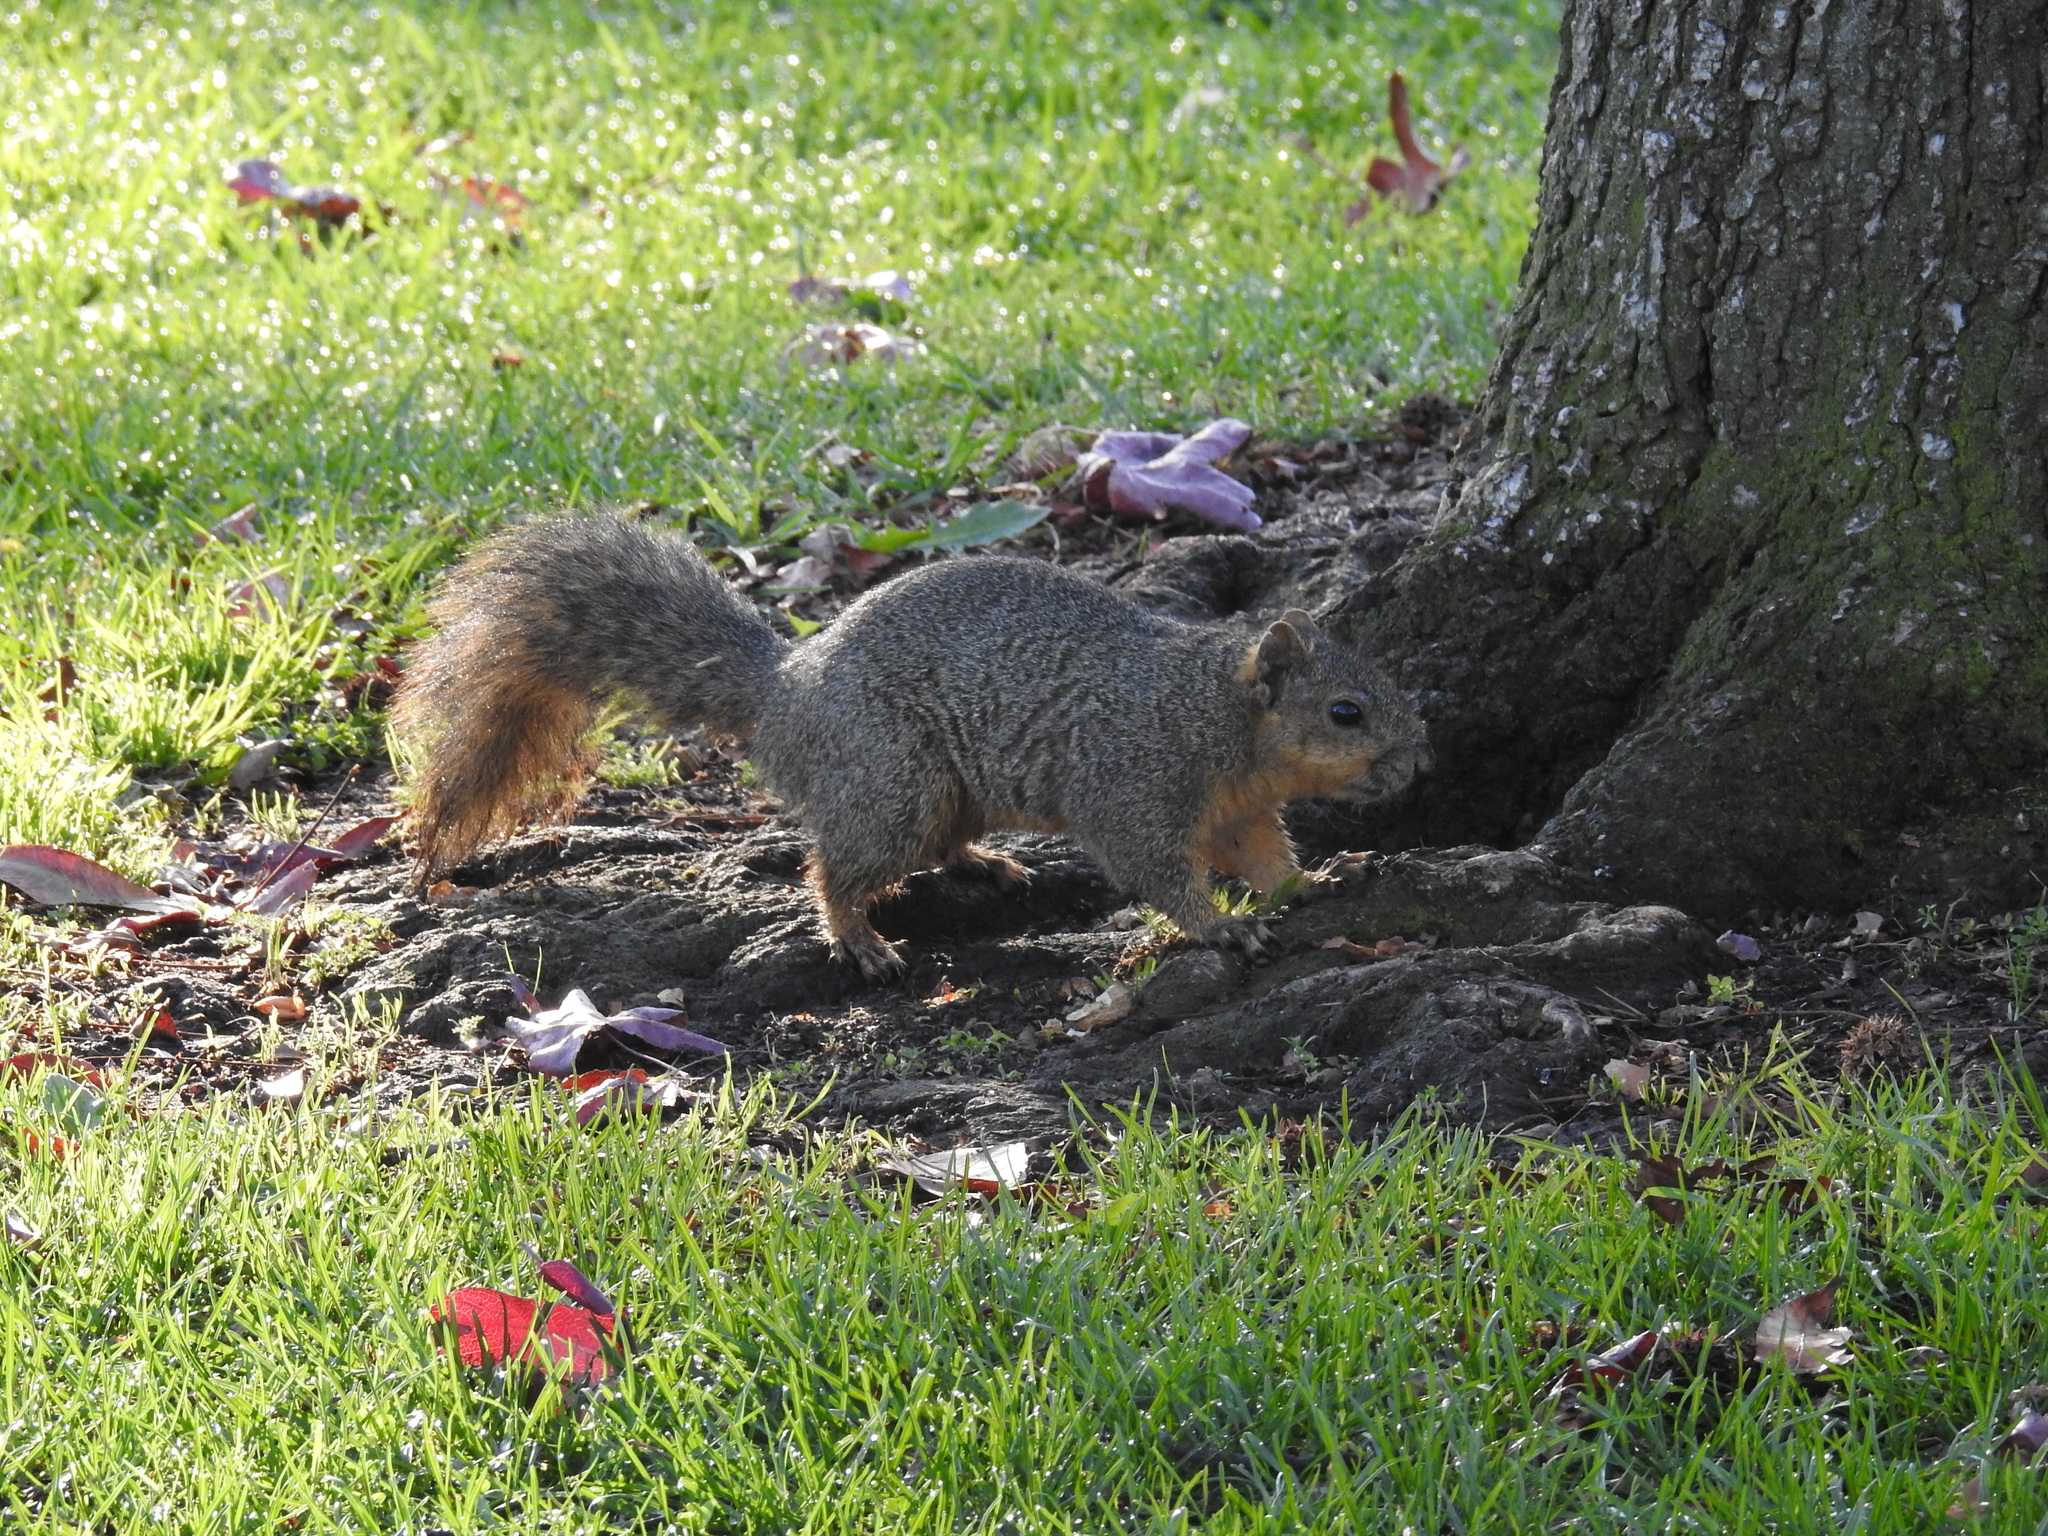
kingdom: Animalia
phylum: Chordata
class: Mammalia
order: Rodentia
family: Sciuridae
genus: Sciurus
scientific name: Sciurus niger
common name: Fox squirrel
